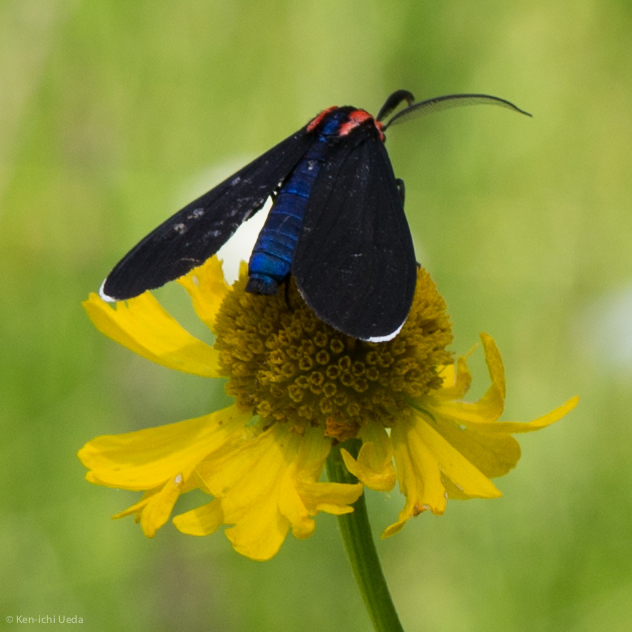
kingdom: Animalia
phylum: Arthropoda
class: Insecta
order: Lepidoptera
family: Erebidae
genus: Ctenucha
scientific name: Ctenucha rubroscapus
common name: Red-shouldered ctenucha
